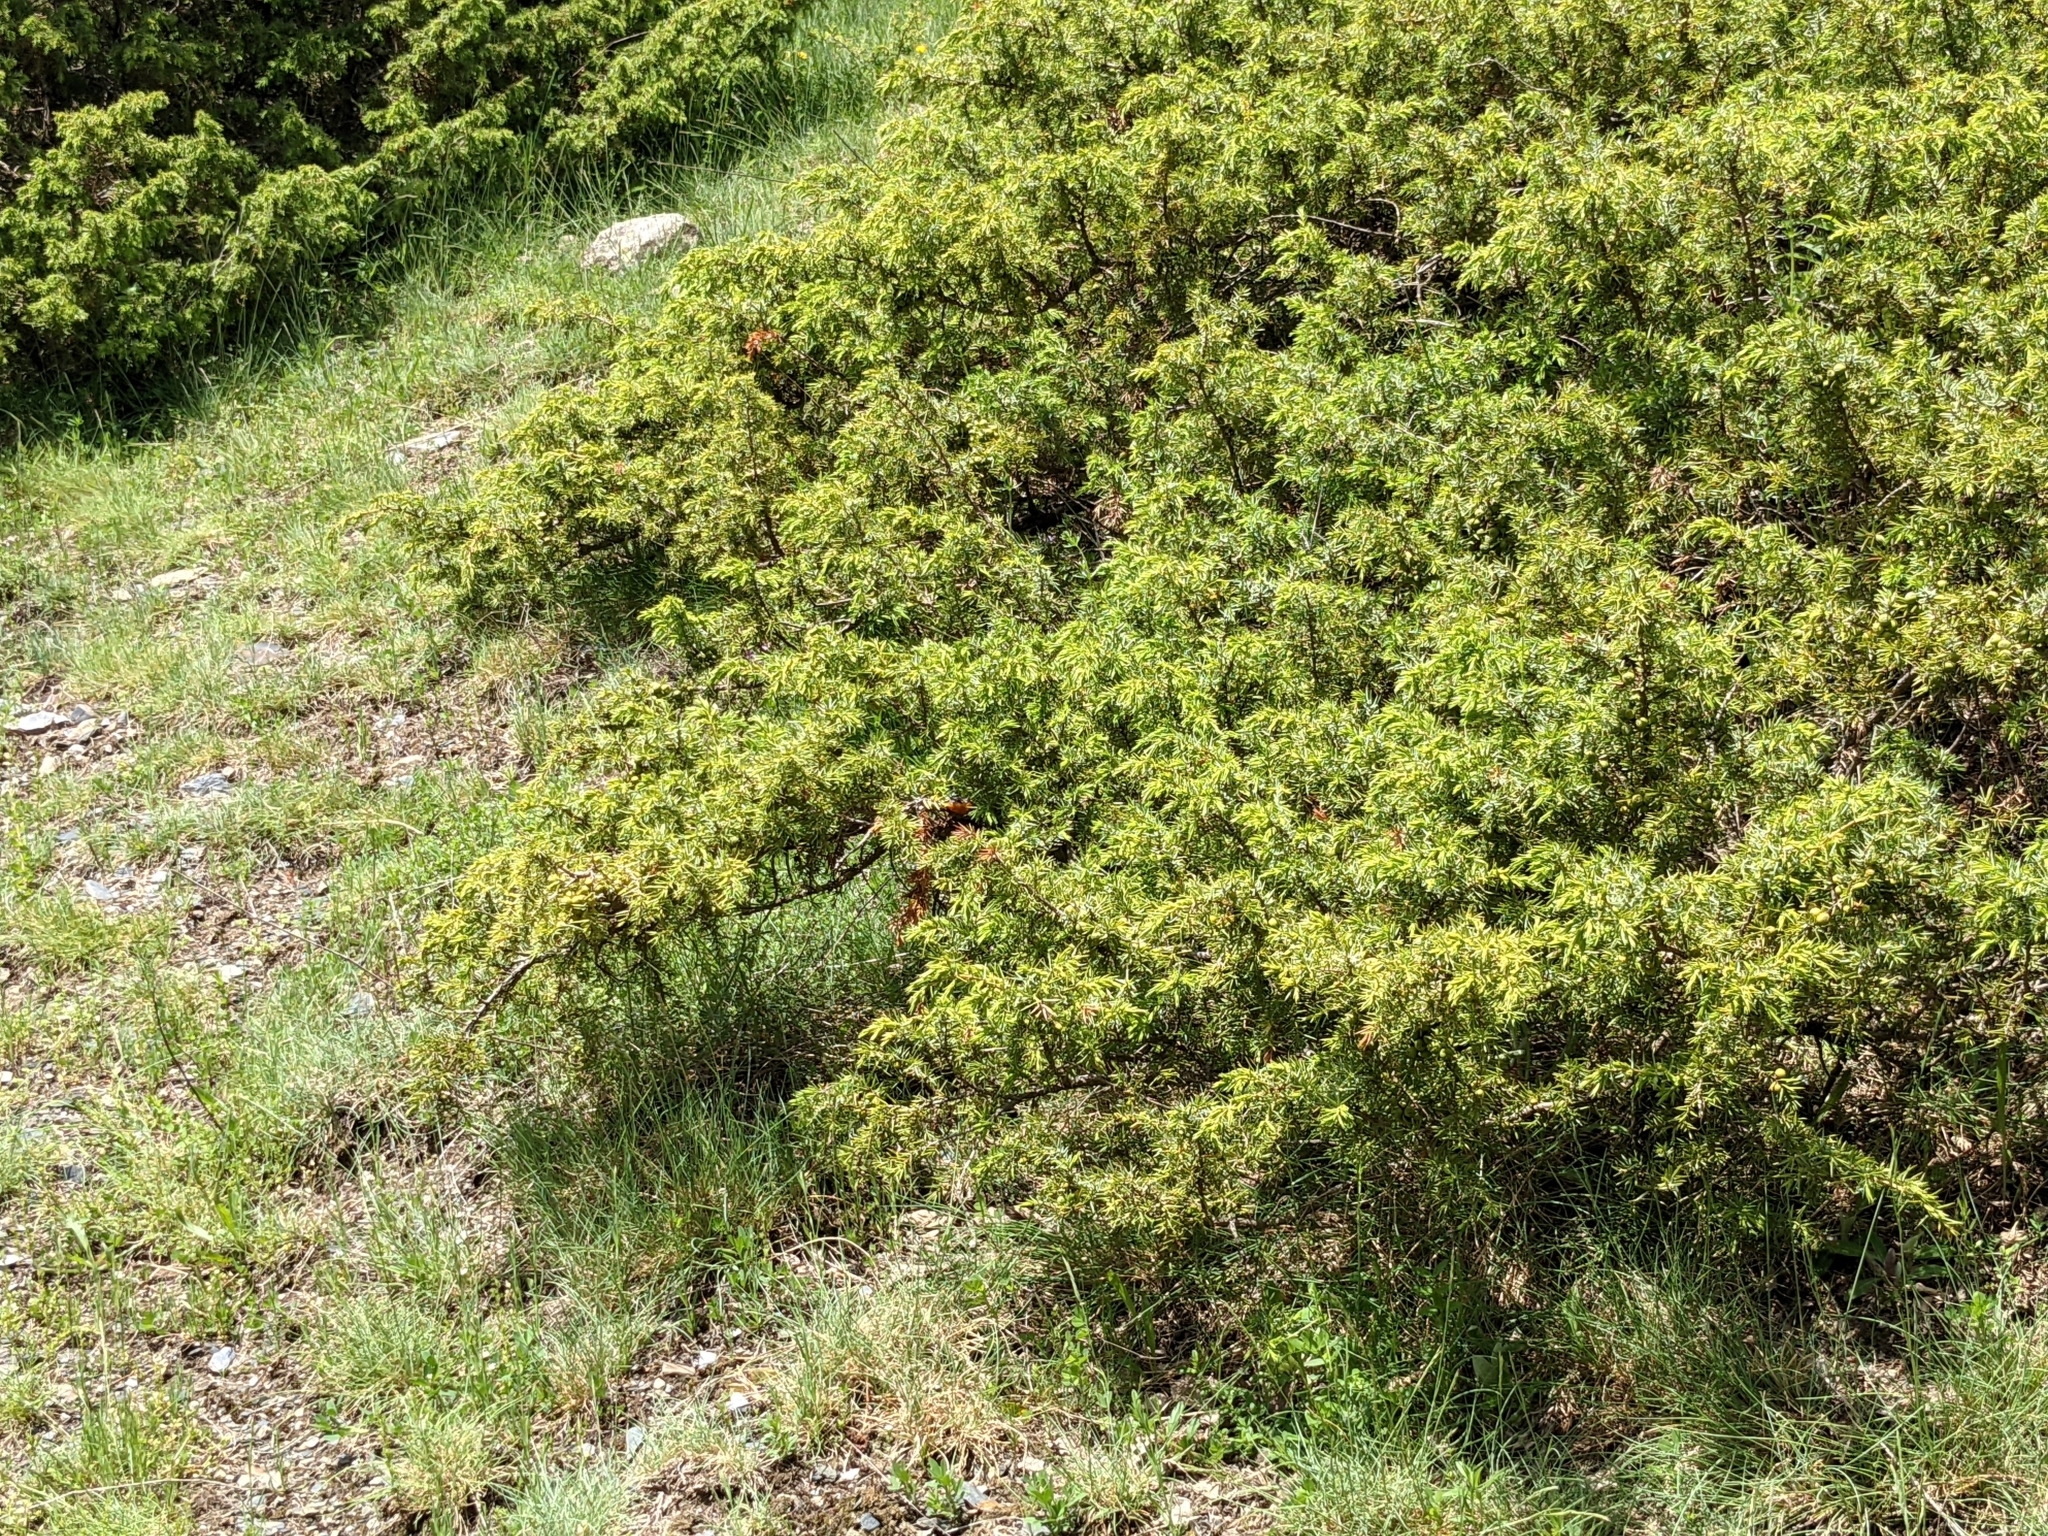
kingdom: Plantae
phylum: Tracheophyta
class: Pinopsida
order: Pinales
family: Cupressaceae
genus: Juniperus
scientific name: Juniperus communis
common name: Common juniper
